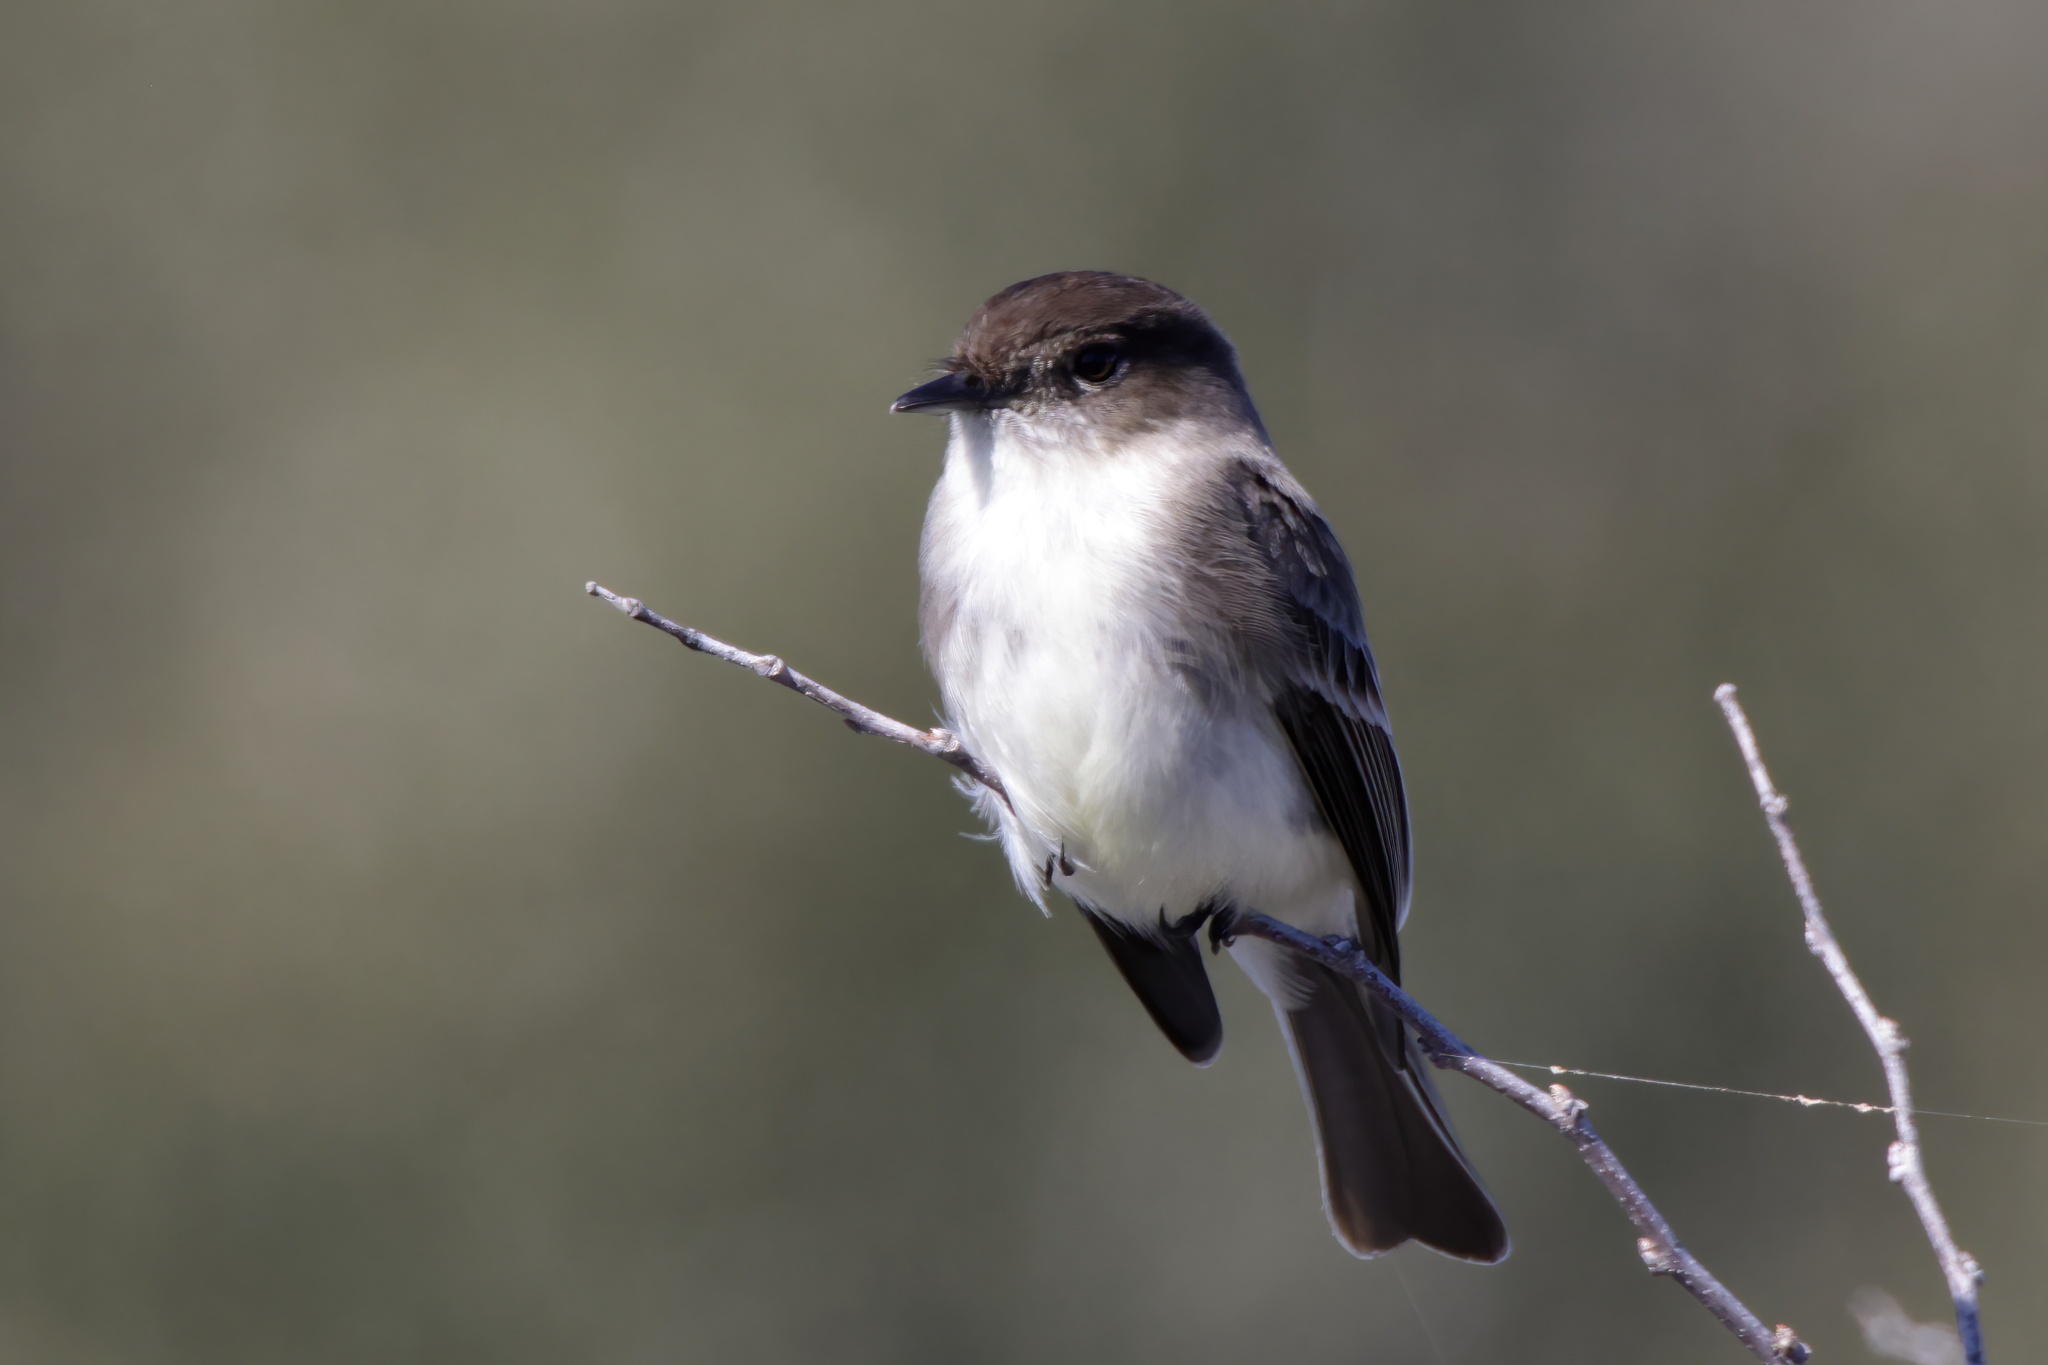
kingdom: Animalia
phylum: Chordata
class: Aves
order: Passeriformes
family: Tyrannidae
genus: Sayornis
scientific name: Sayornis phoebe
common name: Eastern phoebe
